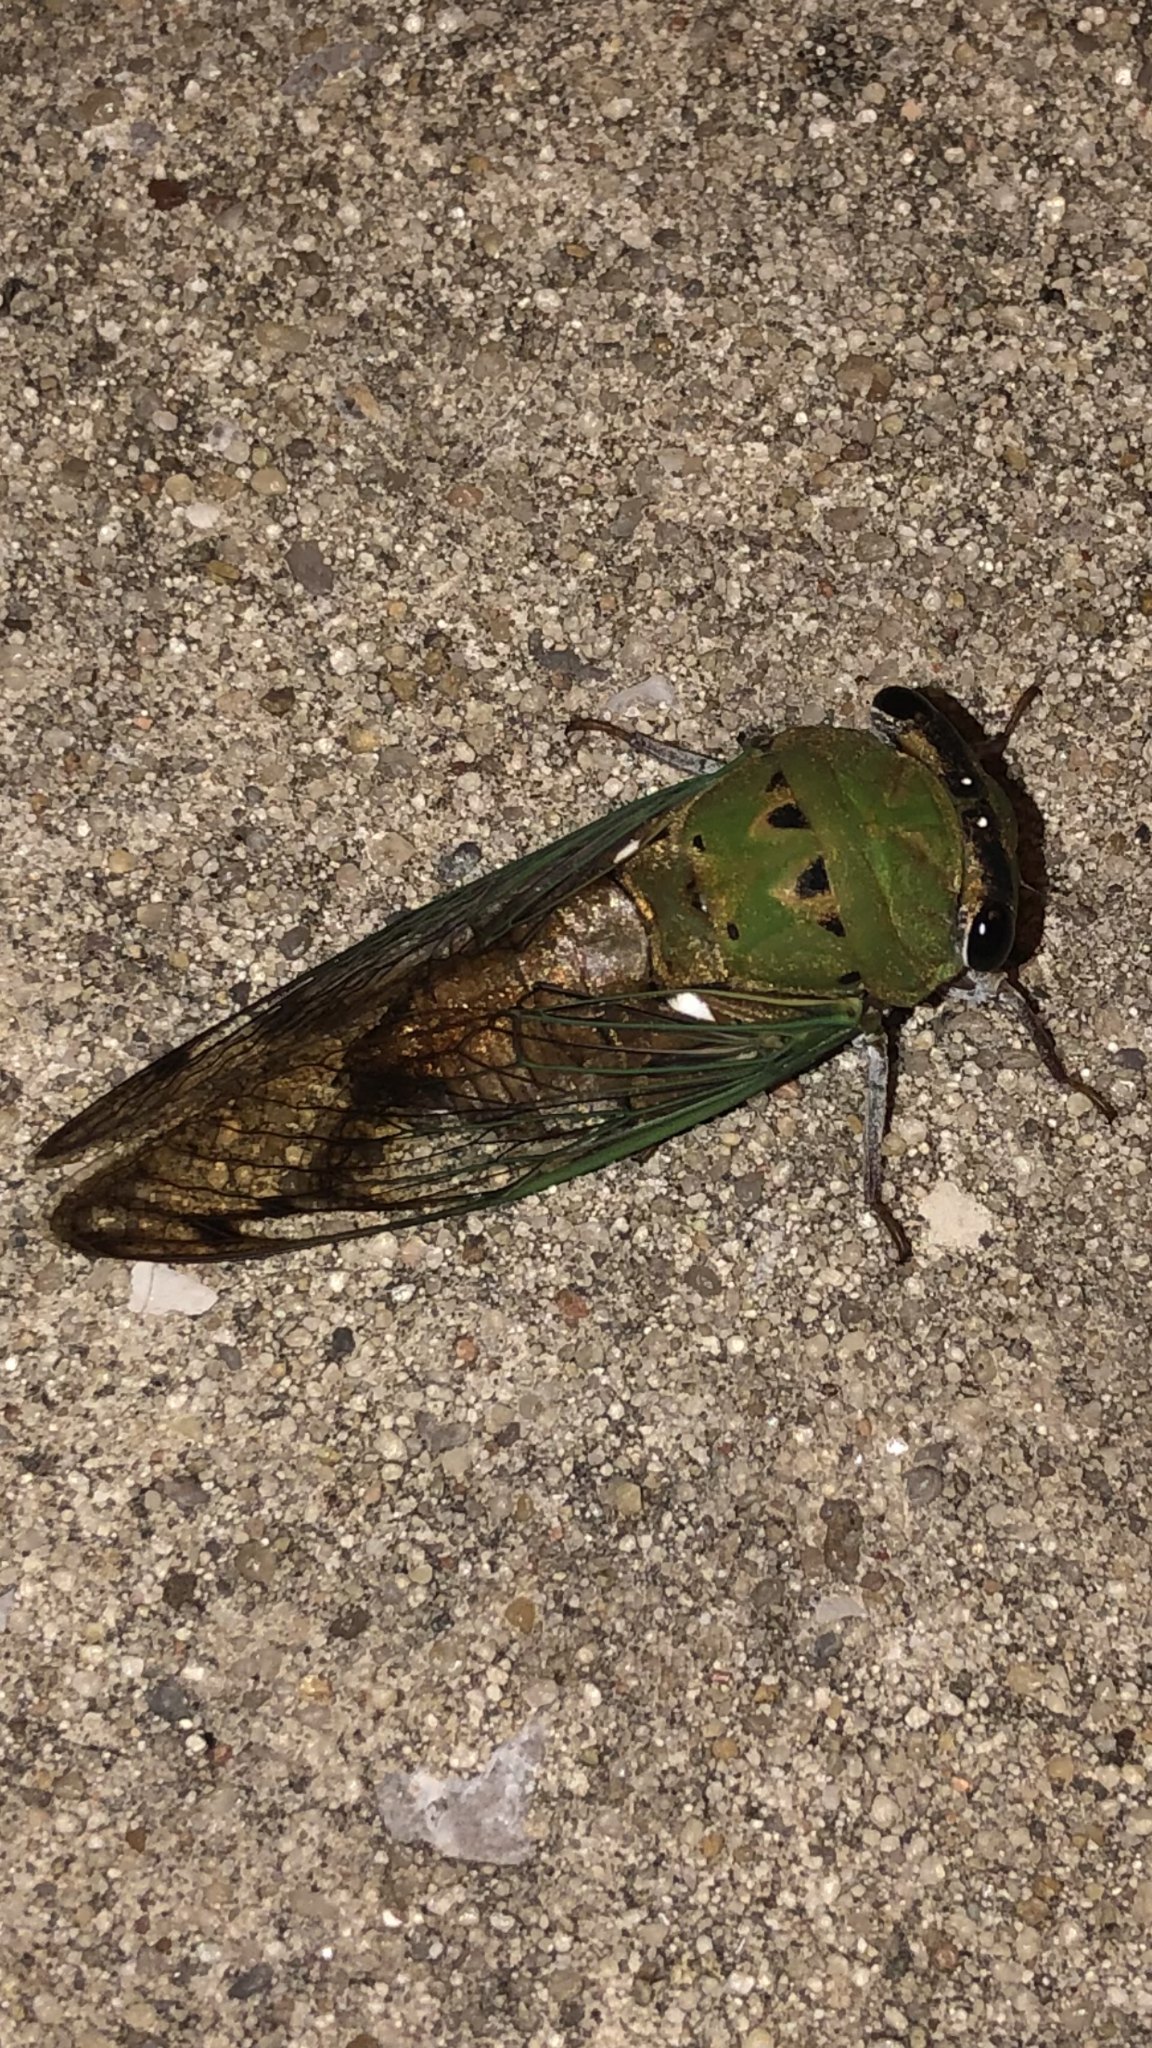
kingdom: Animalia
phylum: Arthropoda
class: Insecta
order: Hemiptera
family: Cicadidae
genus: Neotibicen
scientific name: Neotibicen superbus
